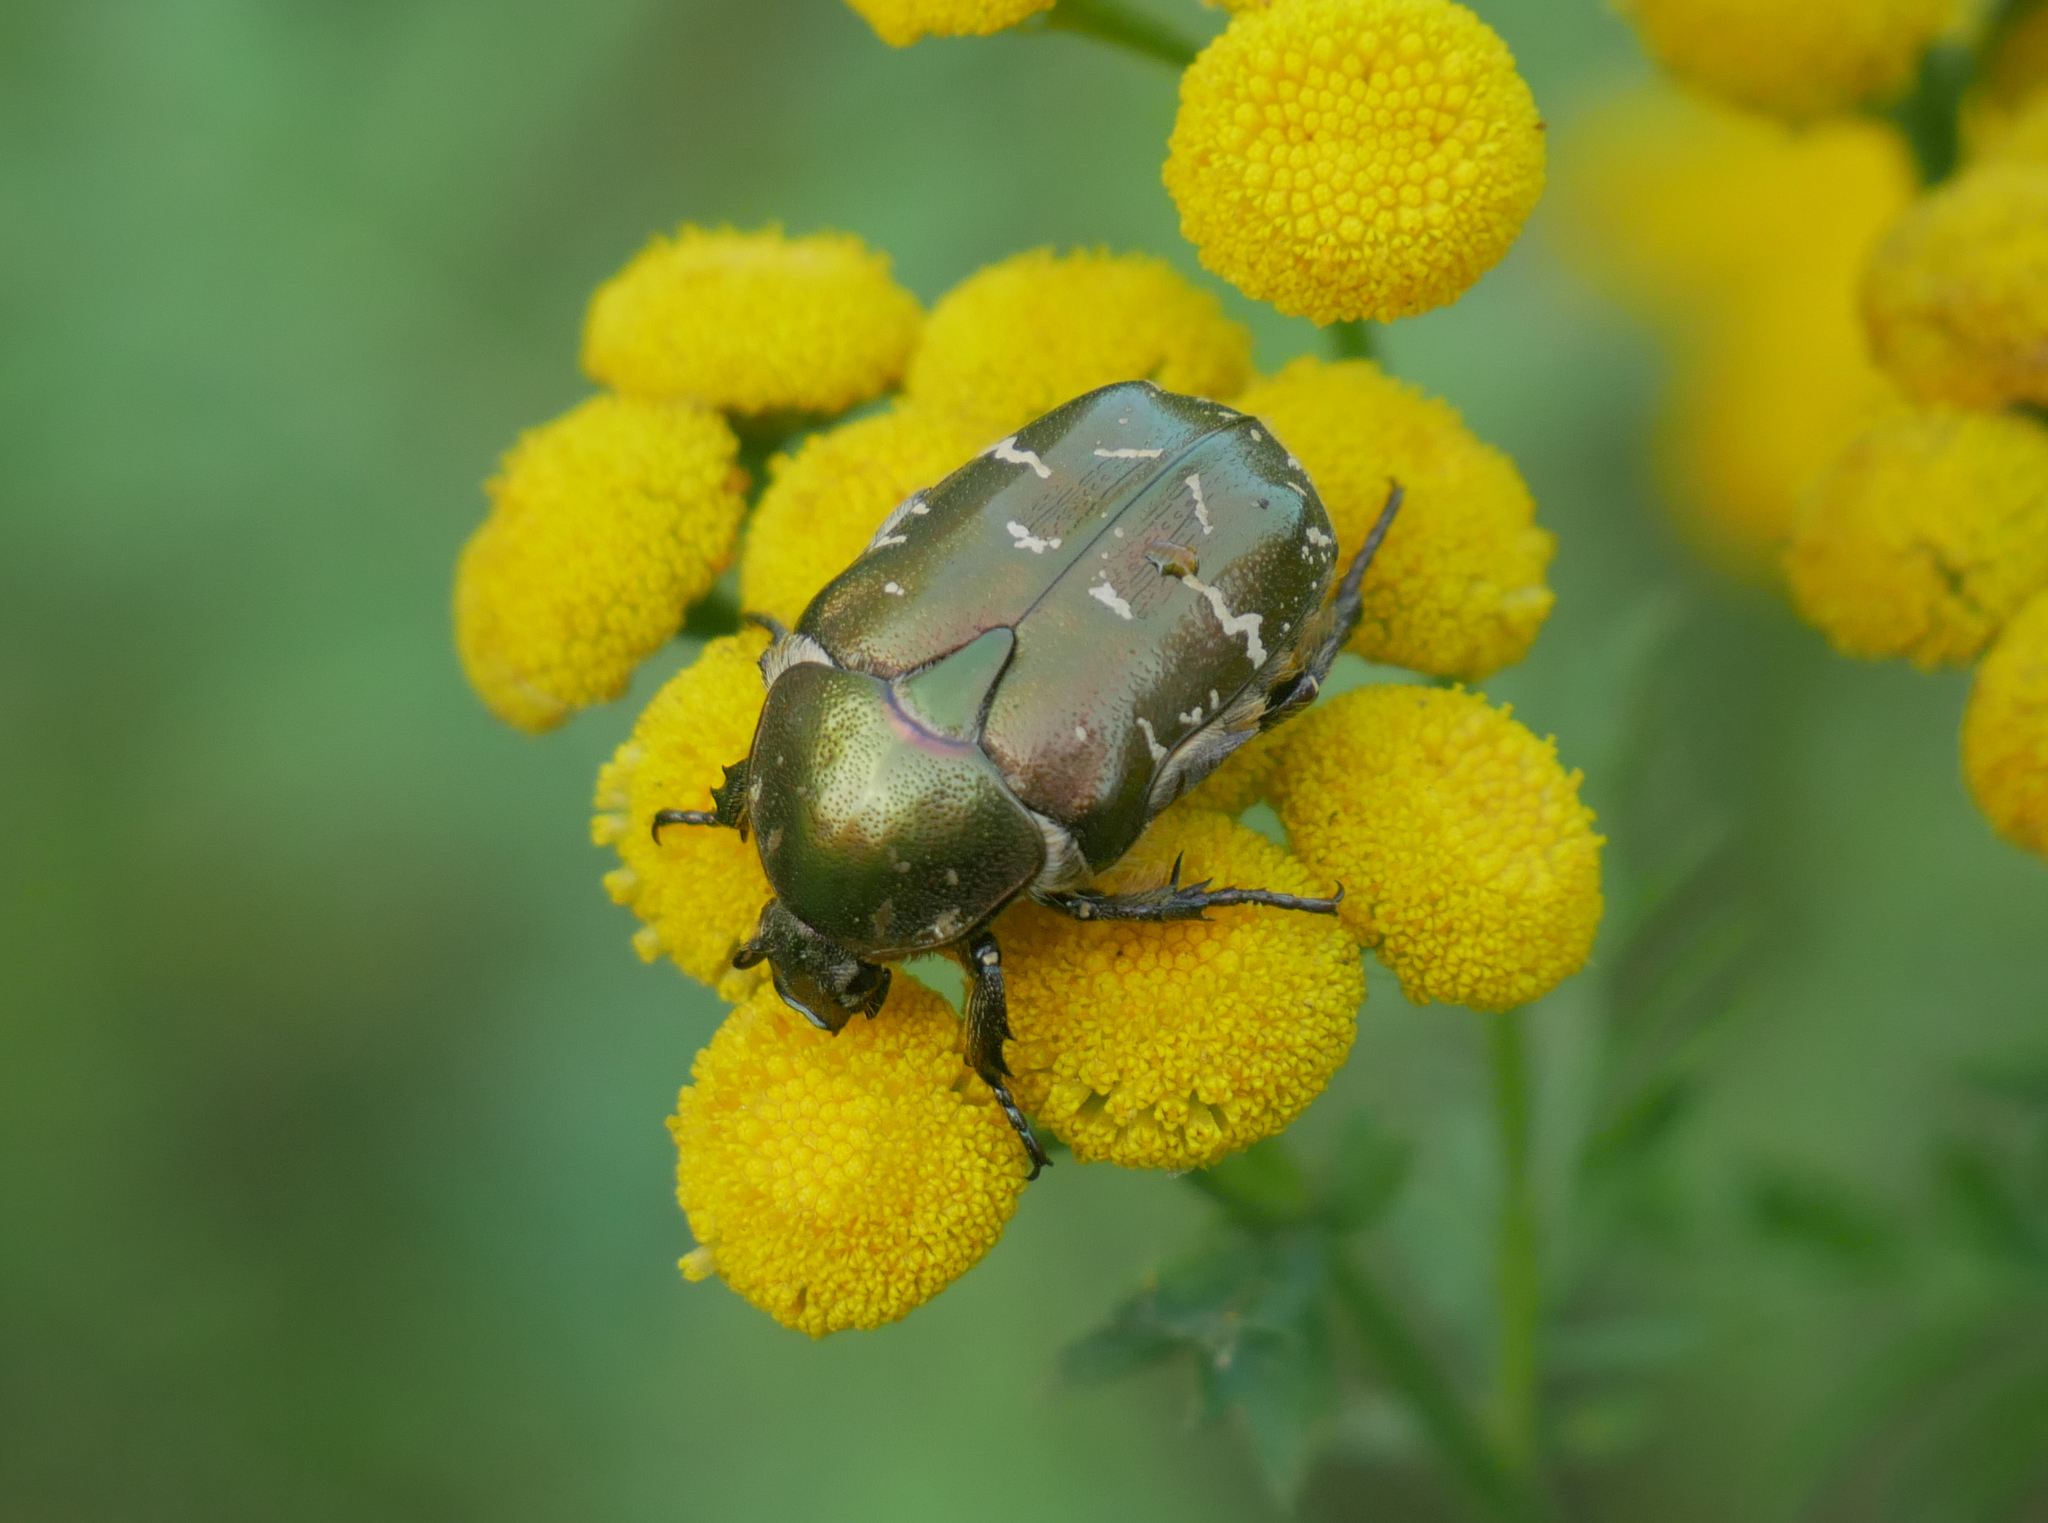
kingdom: Animalia
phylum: Arthropoda
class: Insecta
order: Coleoptera
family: Scarabaeidae
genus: Protaetia
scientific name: Protaetia cuprea
